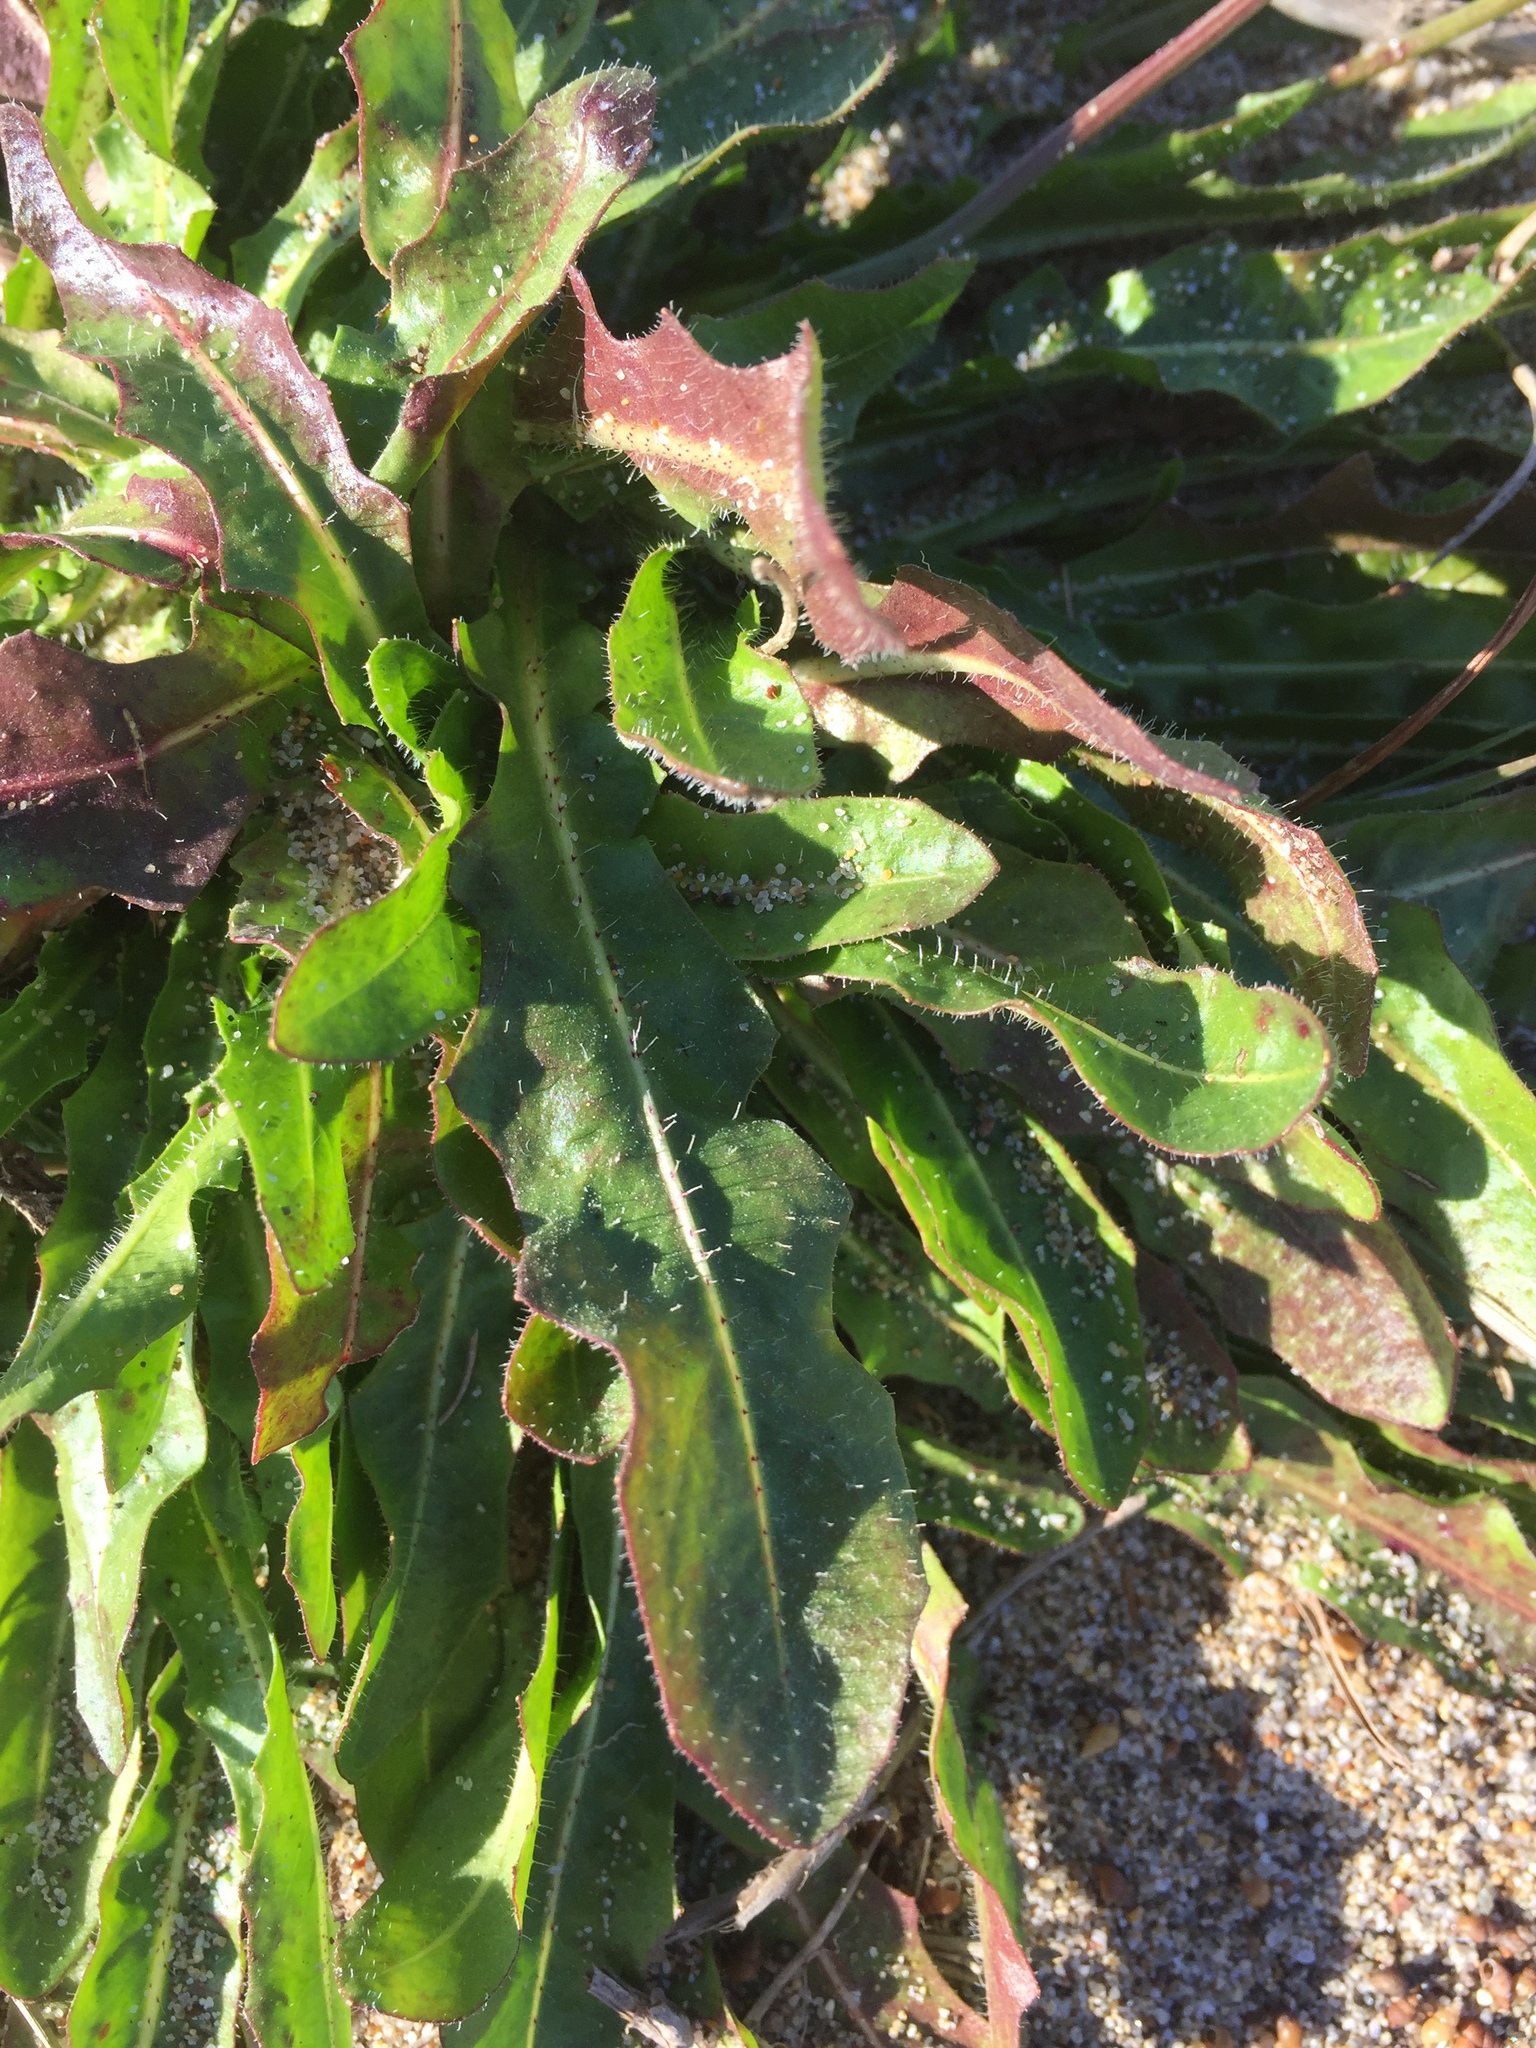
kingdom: Plantae
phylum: Tracheophyta
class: Magnoliopsida
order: Asterales
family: Asteraceae
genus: Agoseris
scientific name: Agoseris apargioides
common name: Point reyes agoseris
